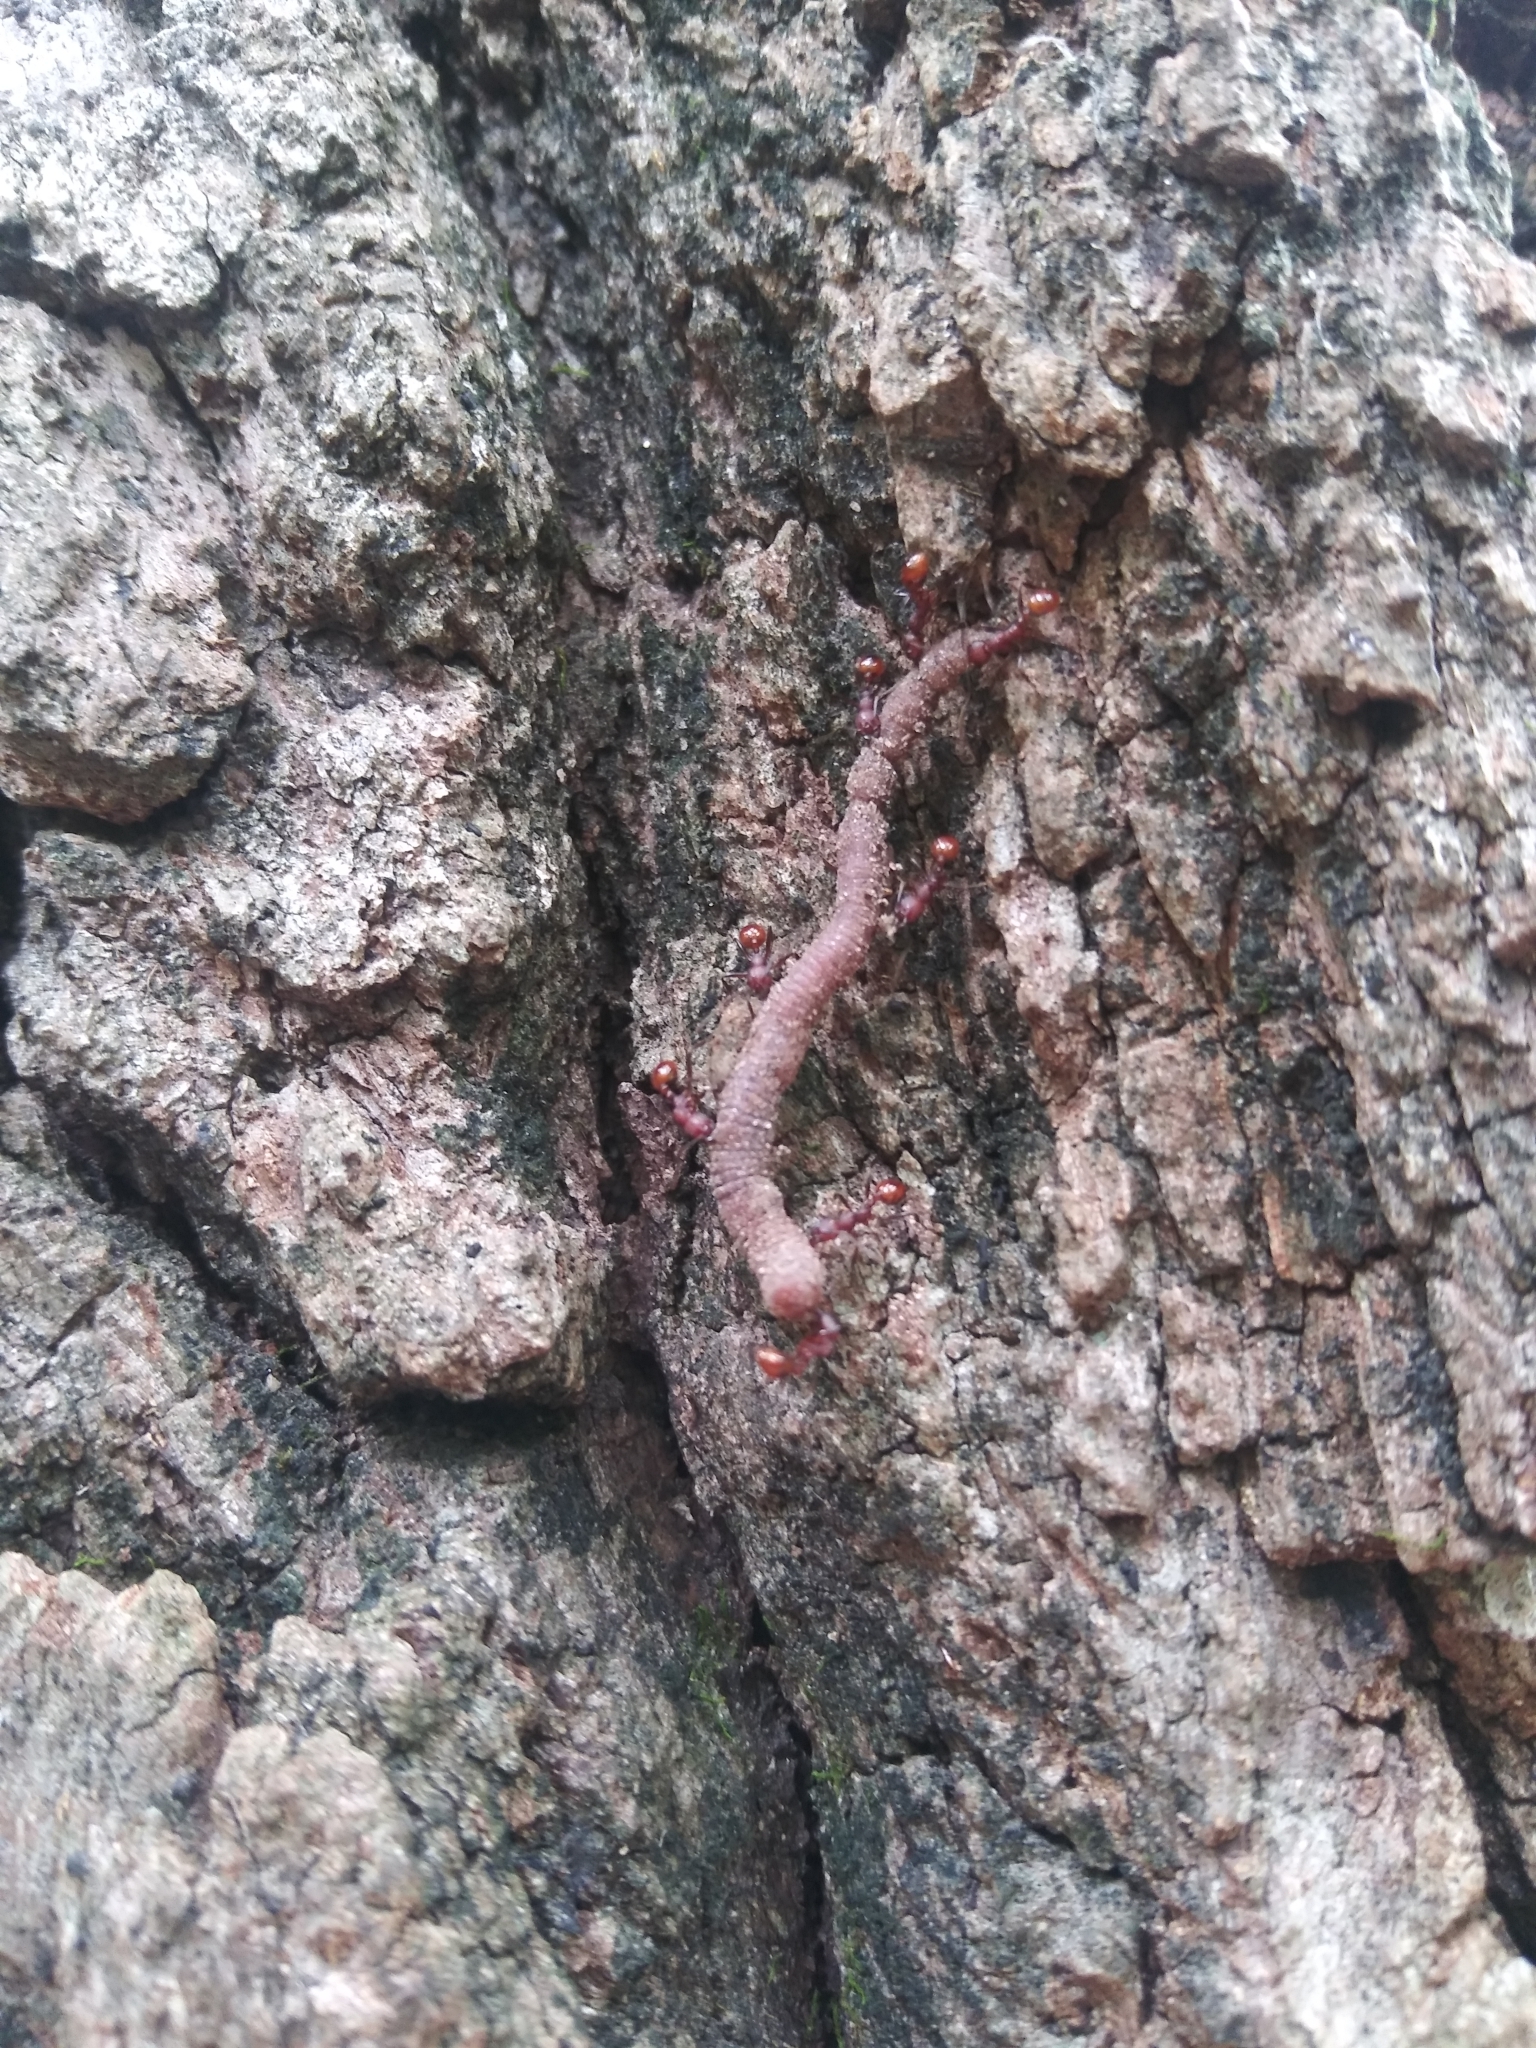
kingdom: Animalia
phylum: Arthropoda
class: Insecta
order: Hymenoptera
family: Formicidae
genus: Aphaenogaster
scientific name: Aphaenogaster tennesseensis
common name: Tennessee thread-waisted ant
